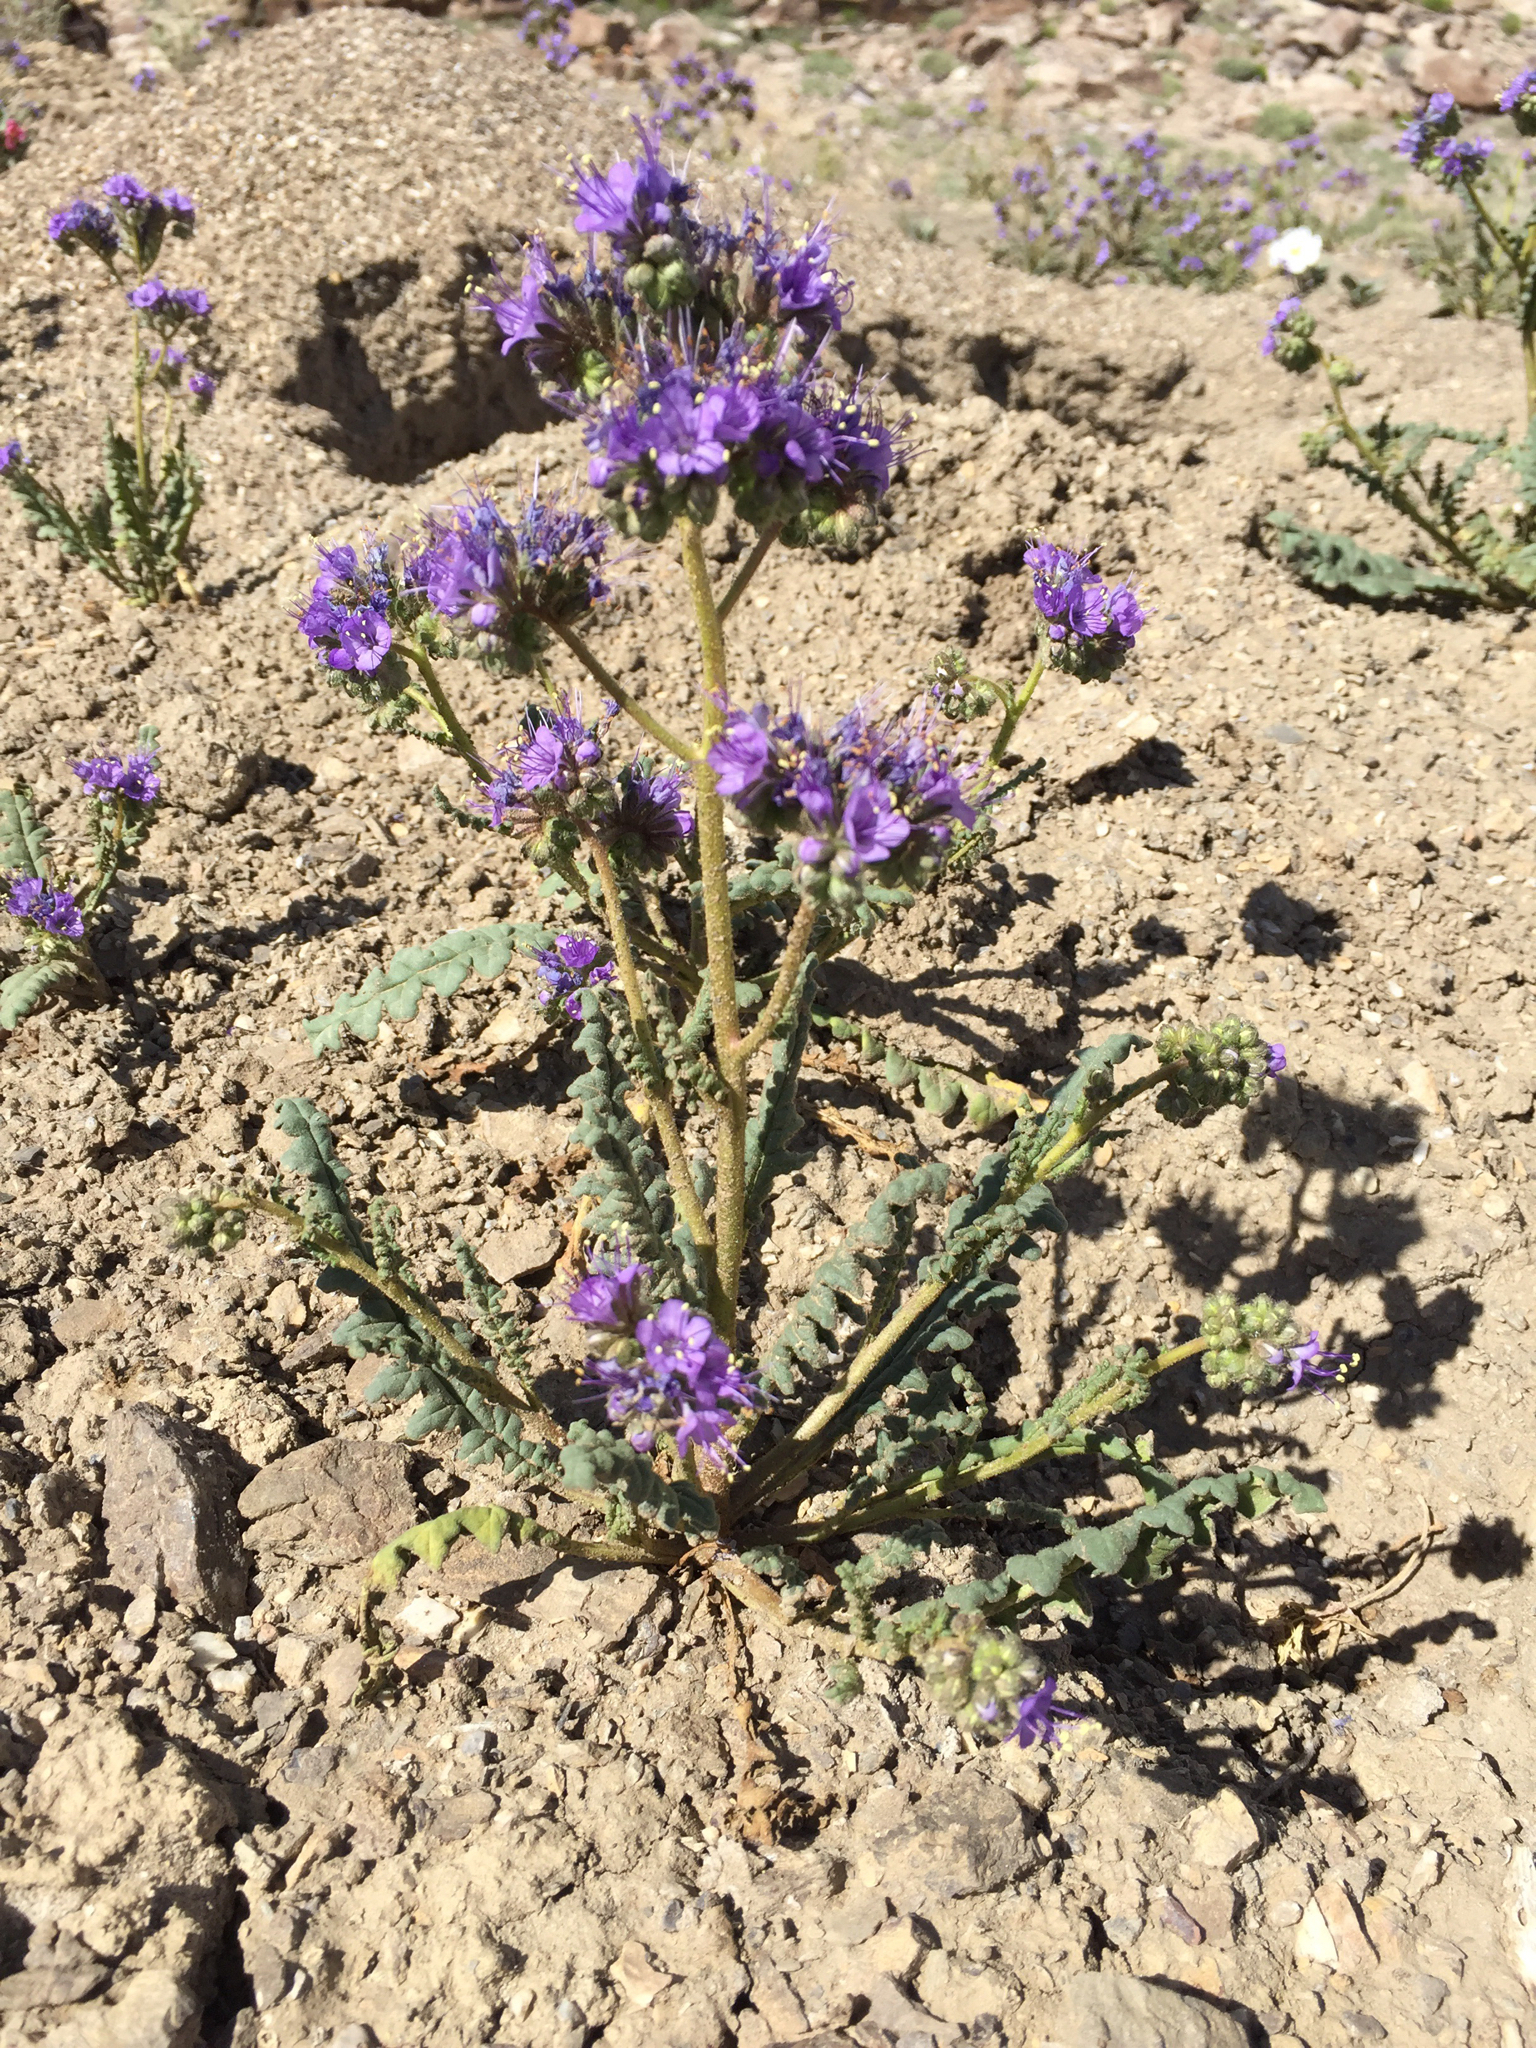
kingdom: Plantae
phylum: Tracheophyta
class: Magnoliopsida
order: Boraginales
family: Hydrophyllaceae
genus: Phacelia
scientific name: Phacelia crenulata
